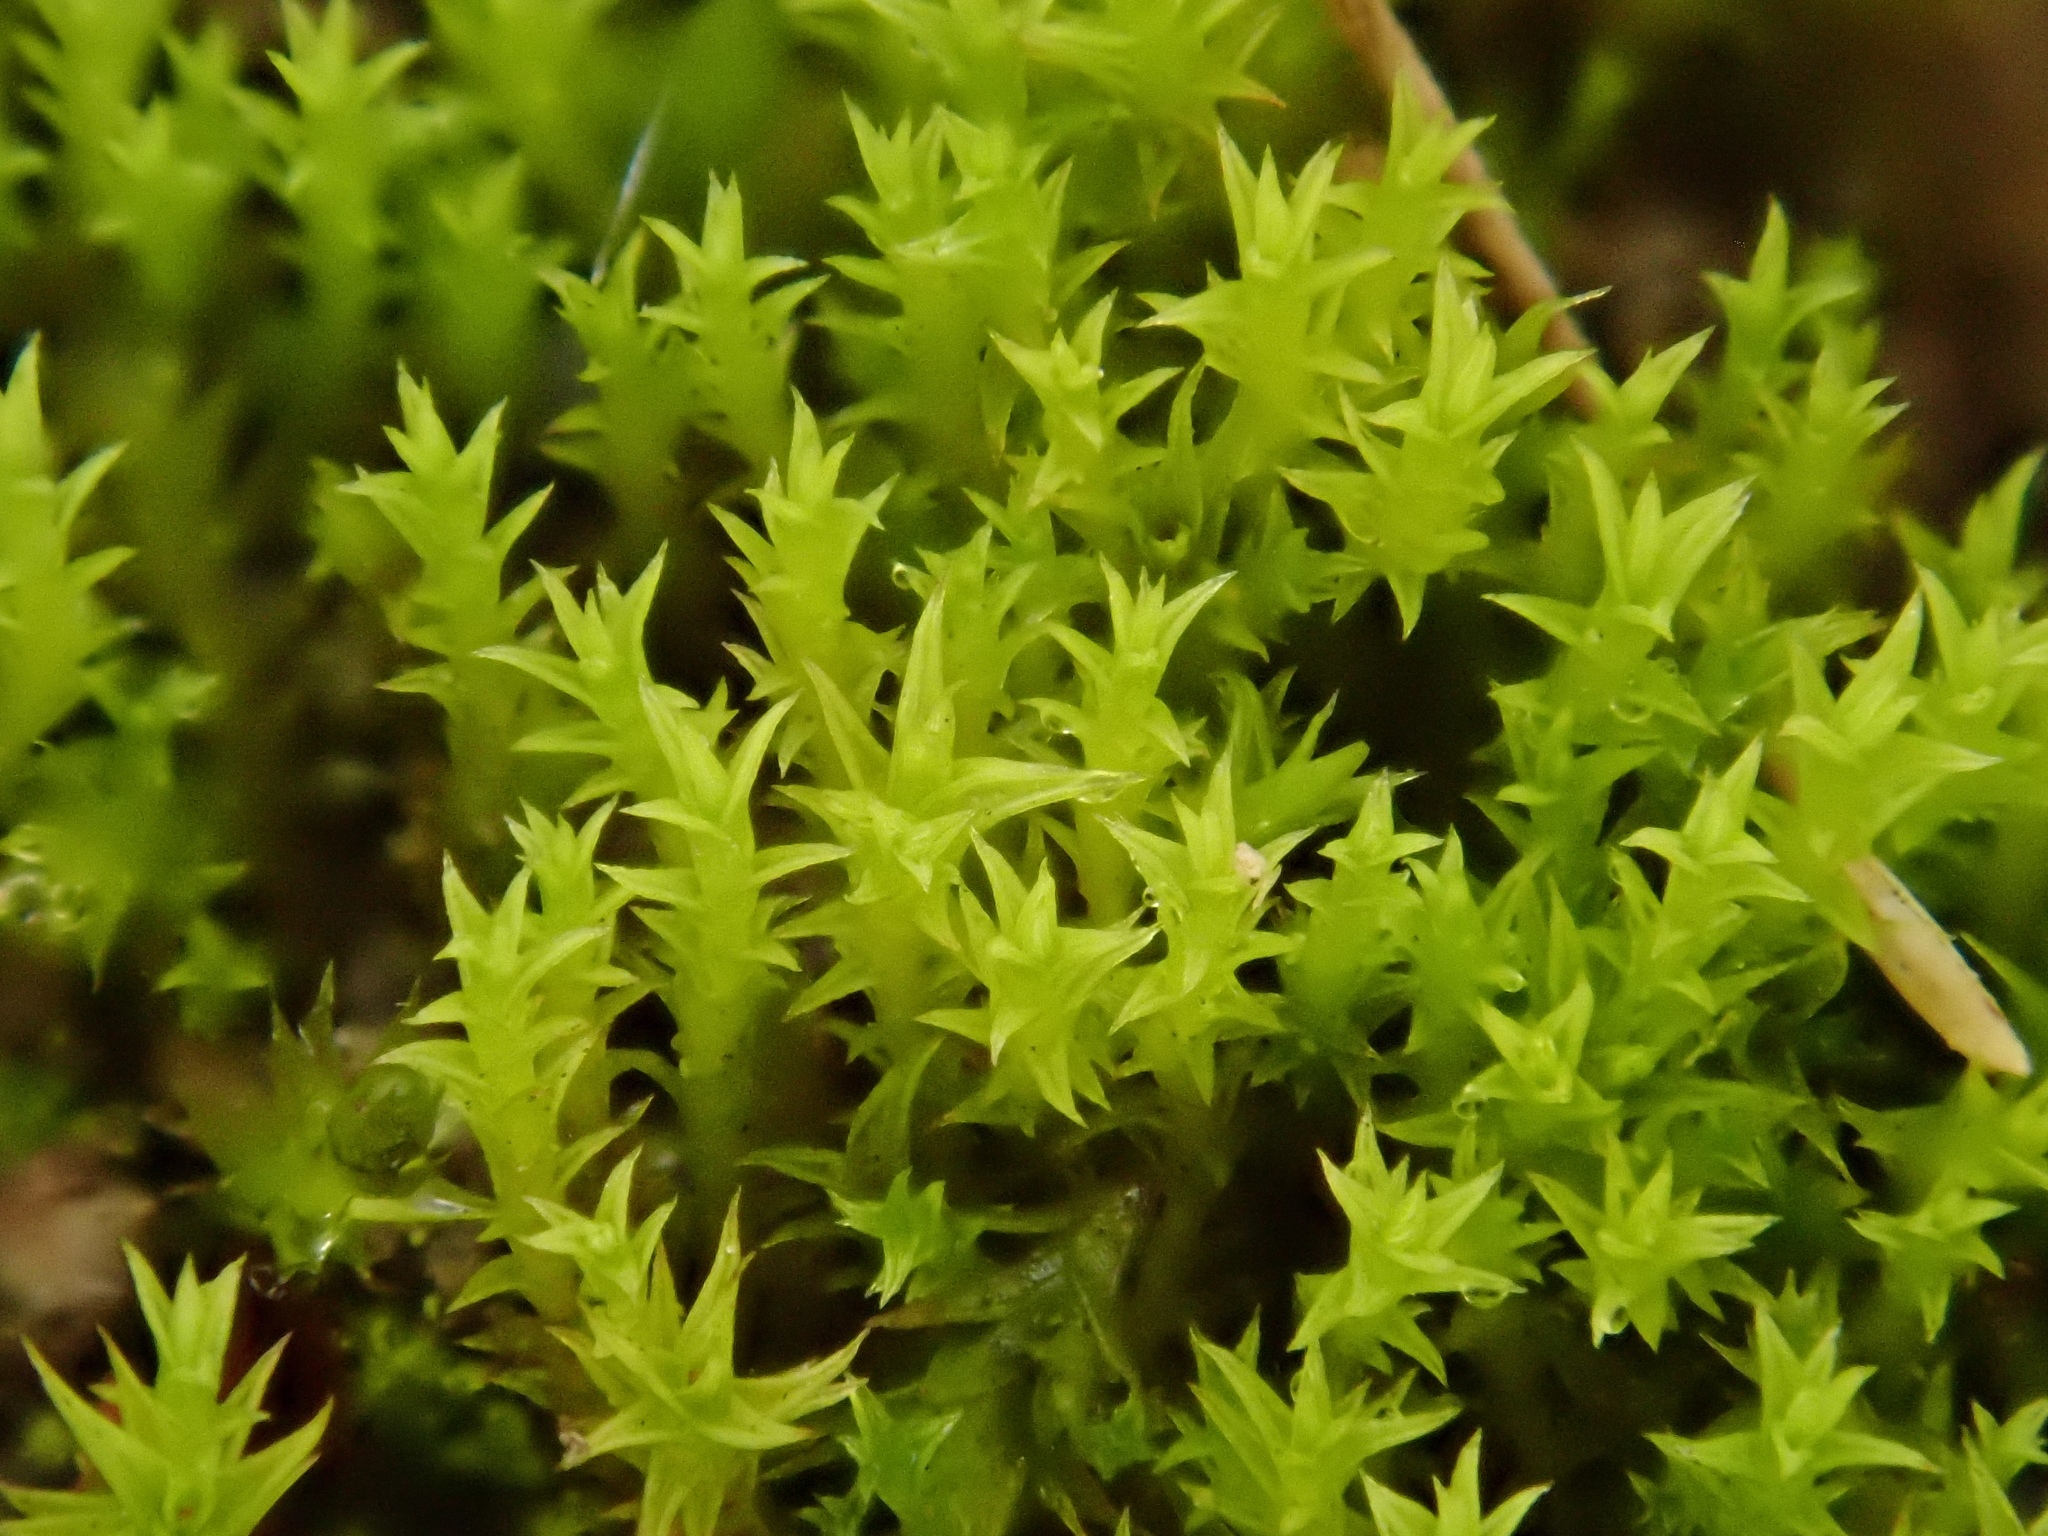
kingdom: Plantae
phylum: Bryophyta
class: Bryopsida
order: Pottiales
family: Pottiaceae
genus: Pseudocrossidium
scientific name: Pseudocrossidium hornschuchianum
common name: Hornschuch's beard-moss
